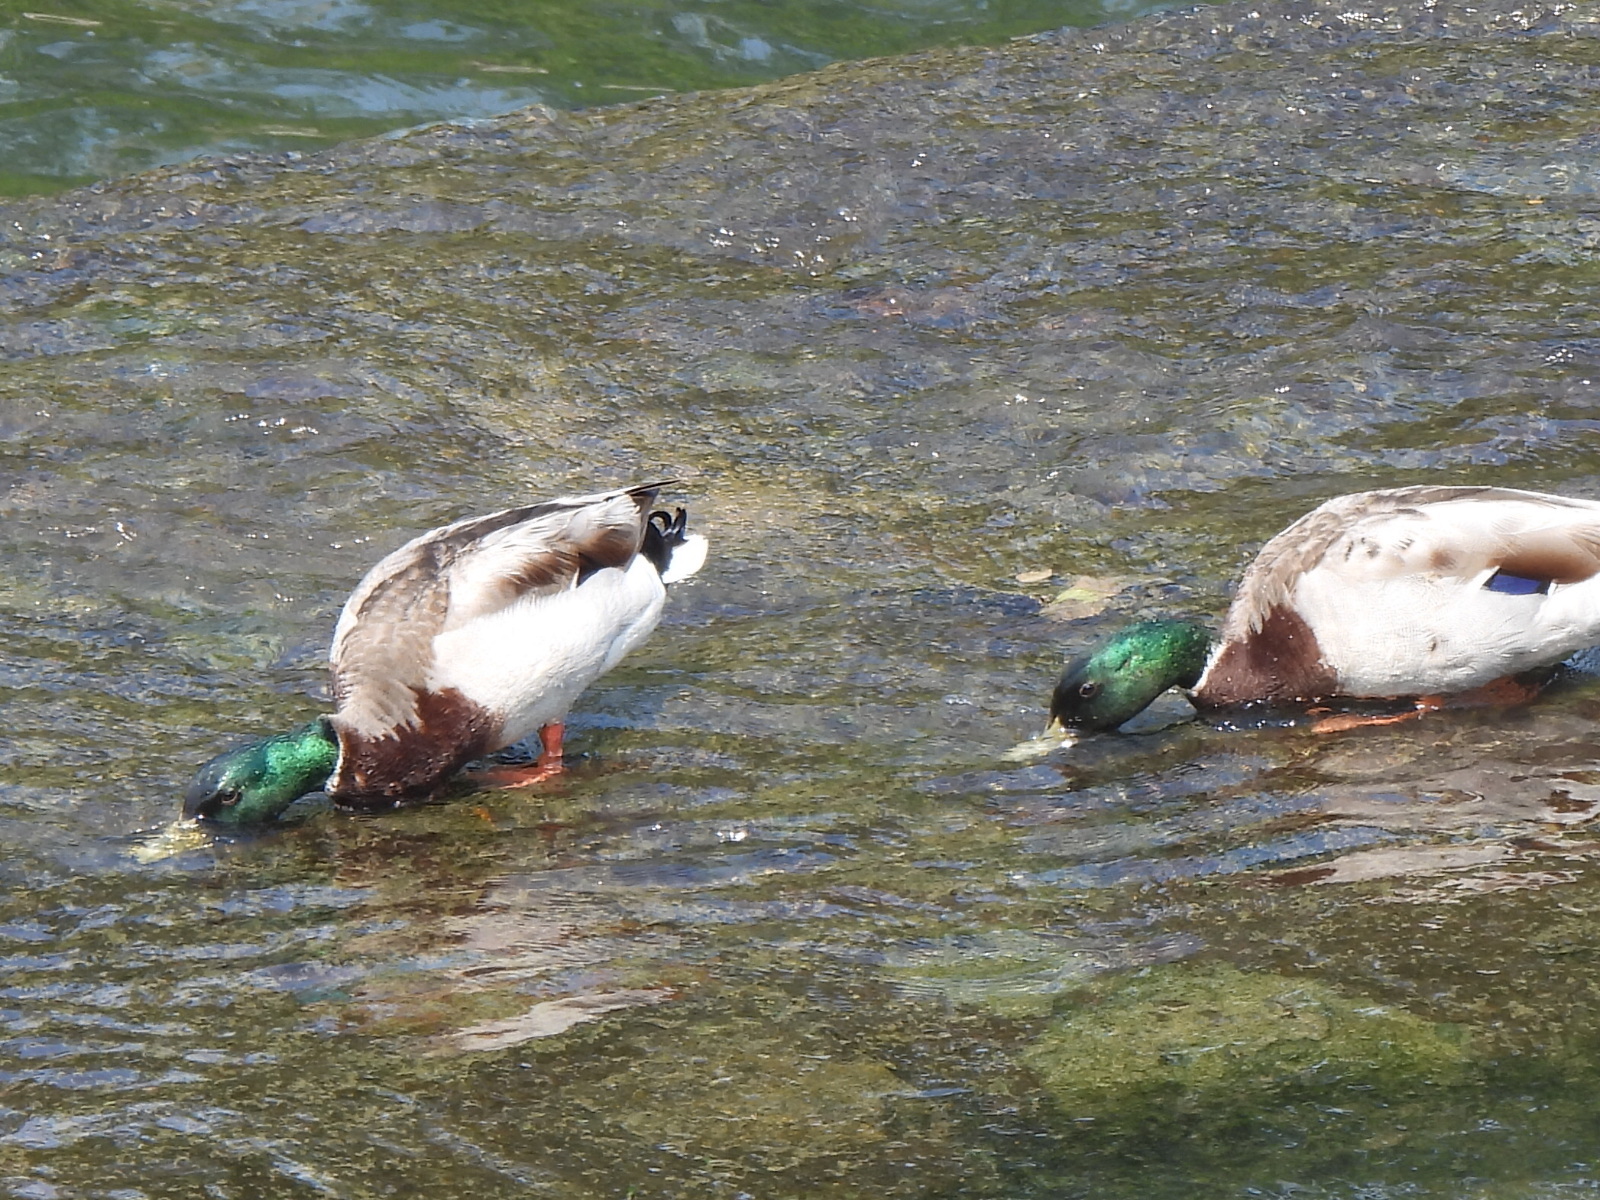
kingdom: Animalia
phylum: Chordata
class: Aves
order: Anseriformes
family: Anatidae
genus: Anas
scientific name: Anas platyrhynchos
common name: Mallard
